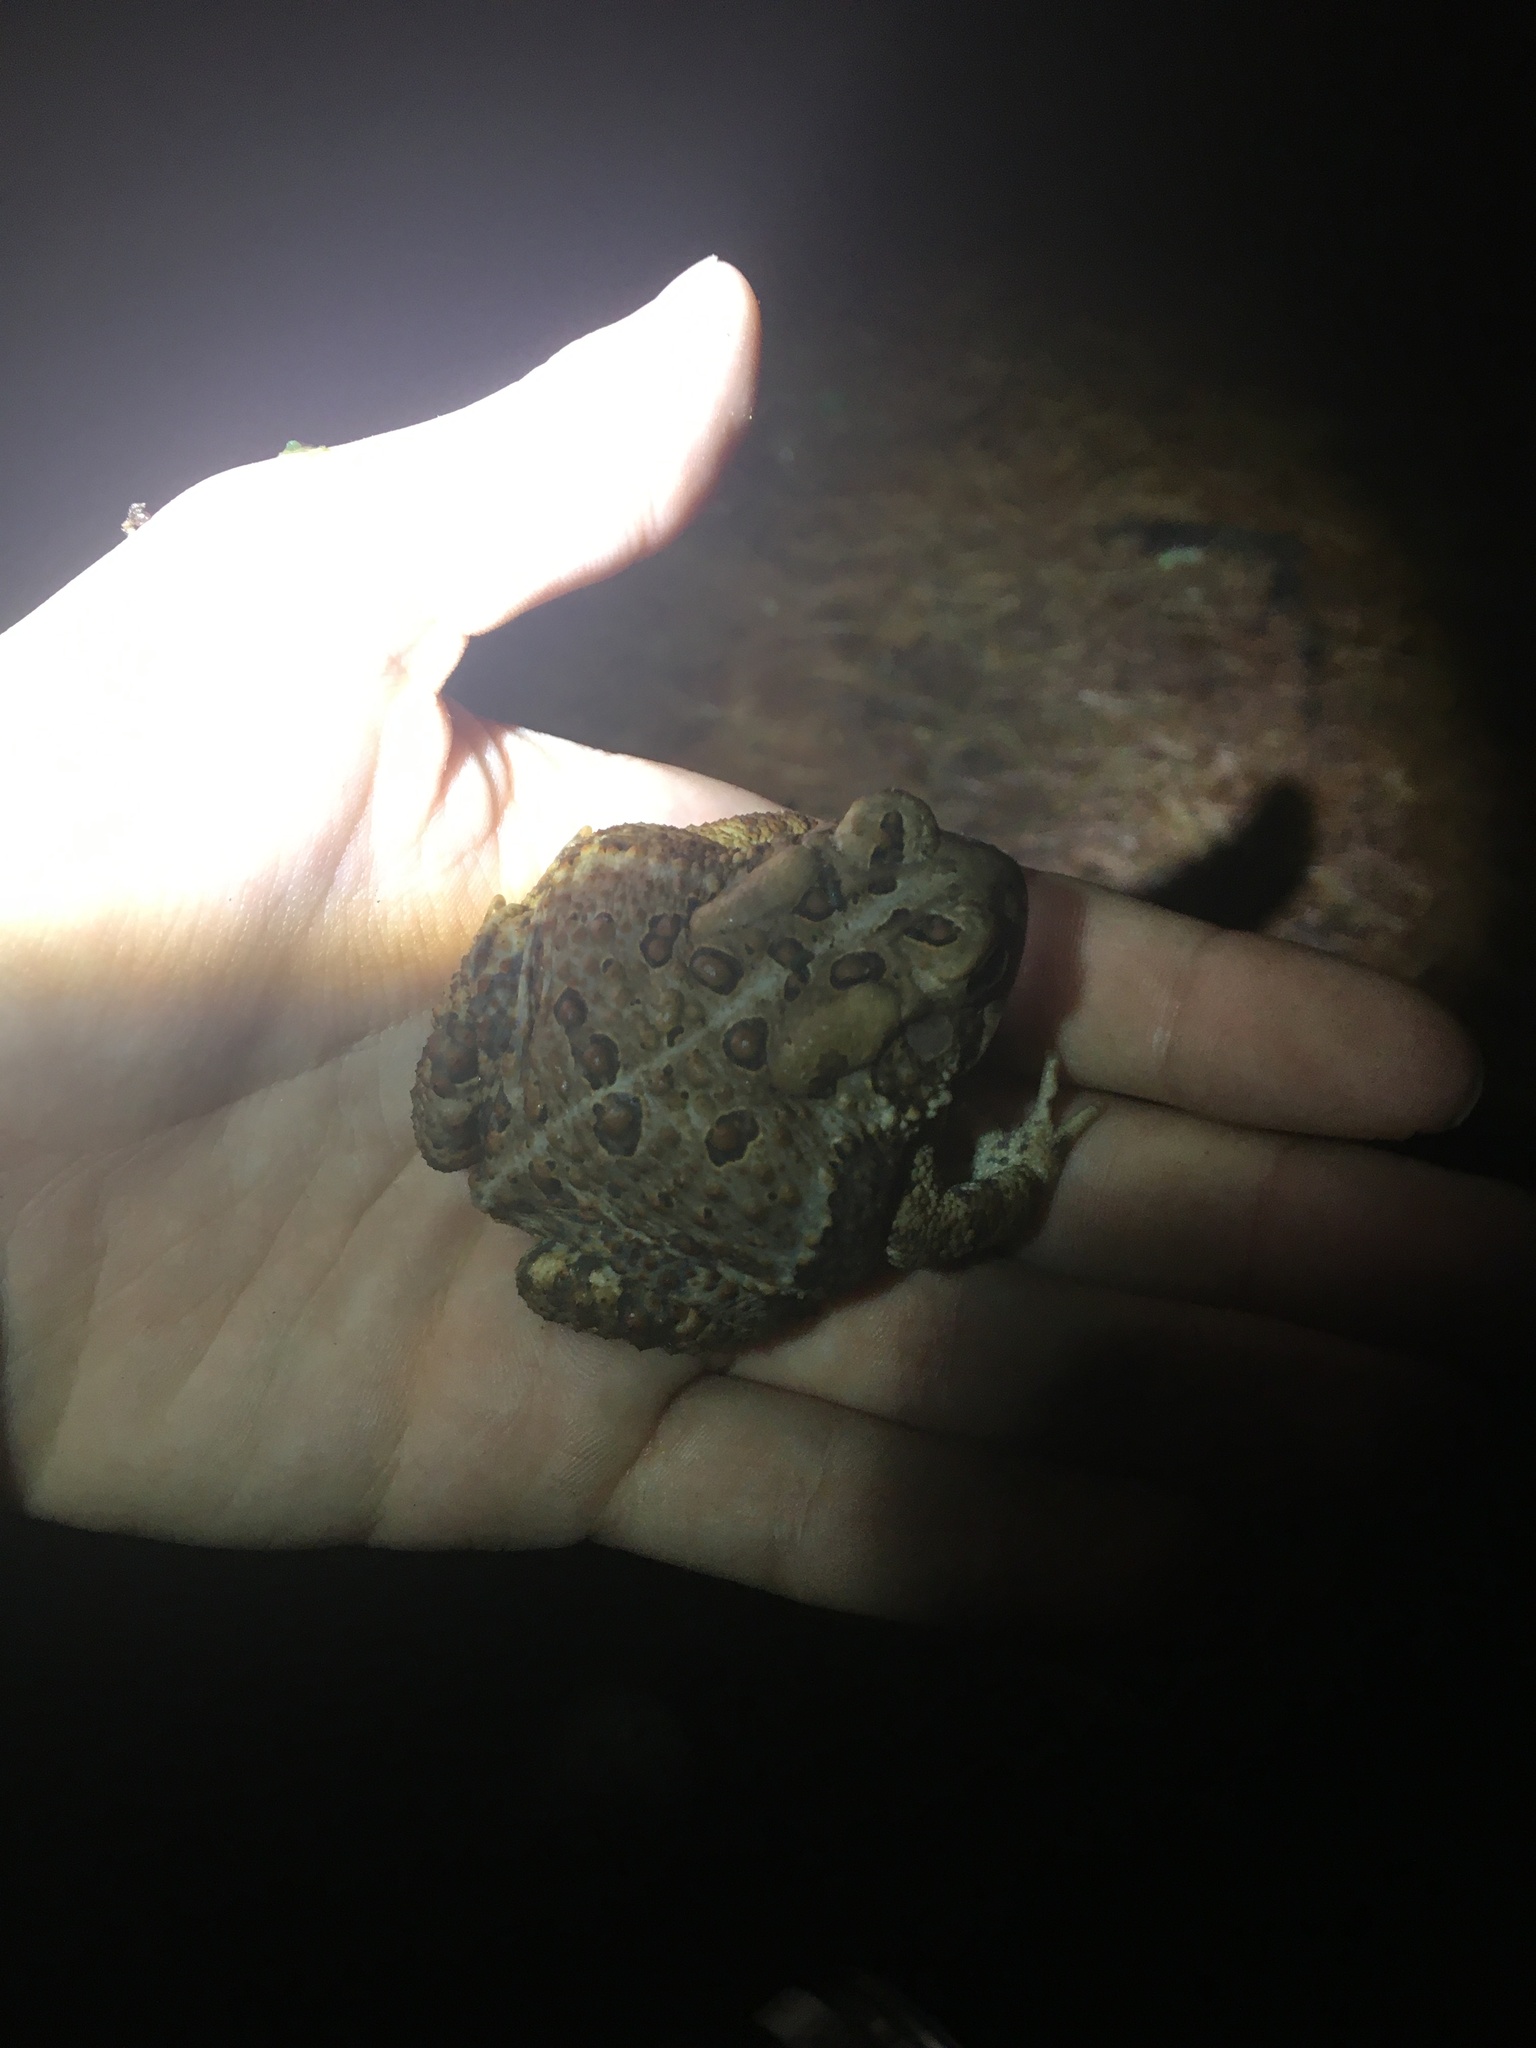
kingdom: Animalia
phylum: Chordata
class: Amphibia
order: Anura
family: Bufonidae
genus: Anaxyrus
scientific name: Anaxyrus americanus
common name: American toad
